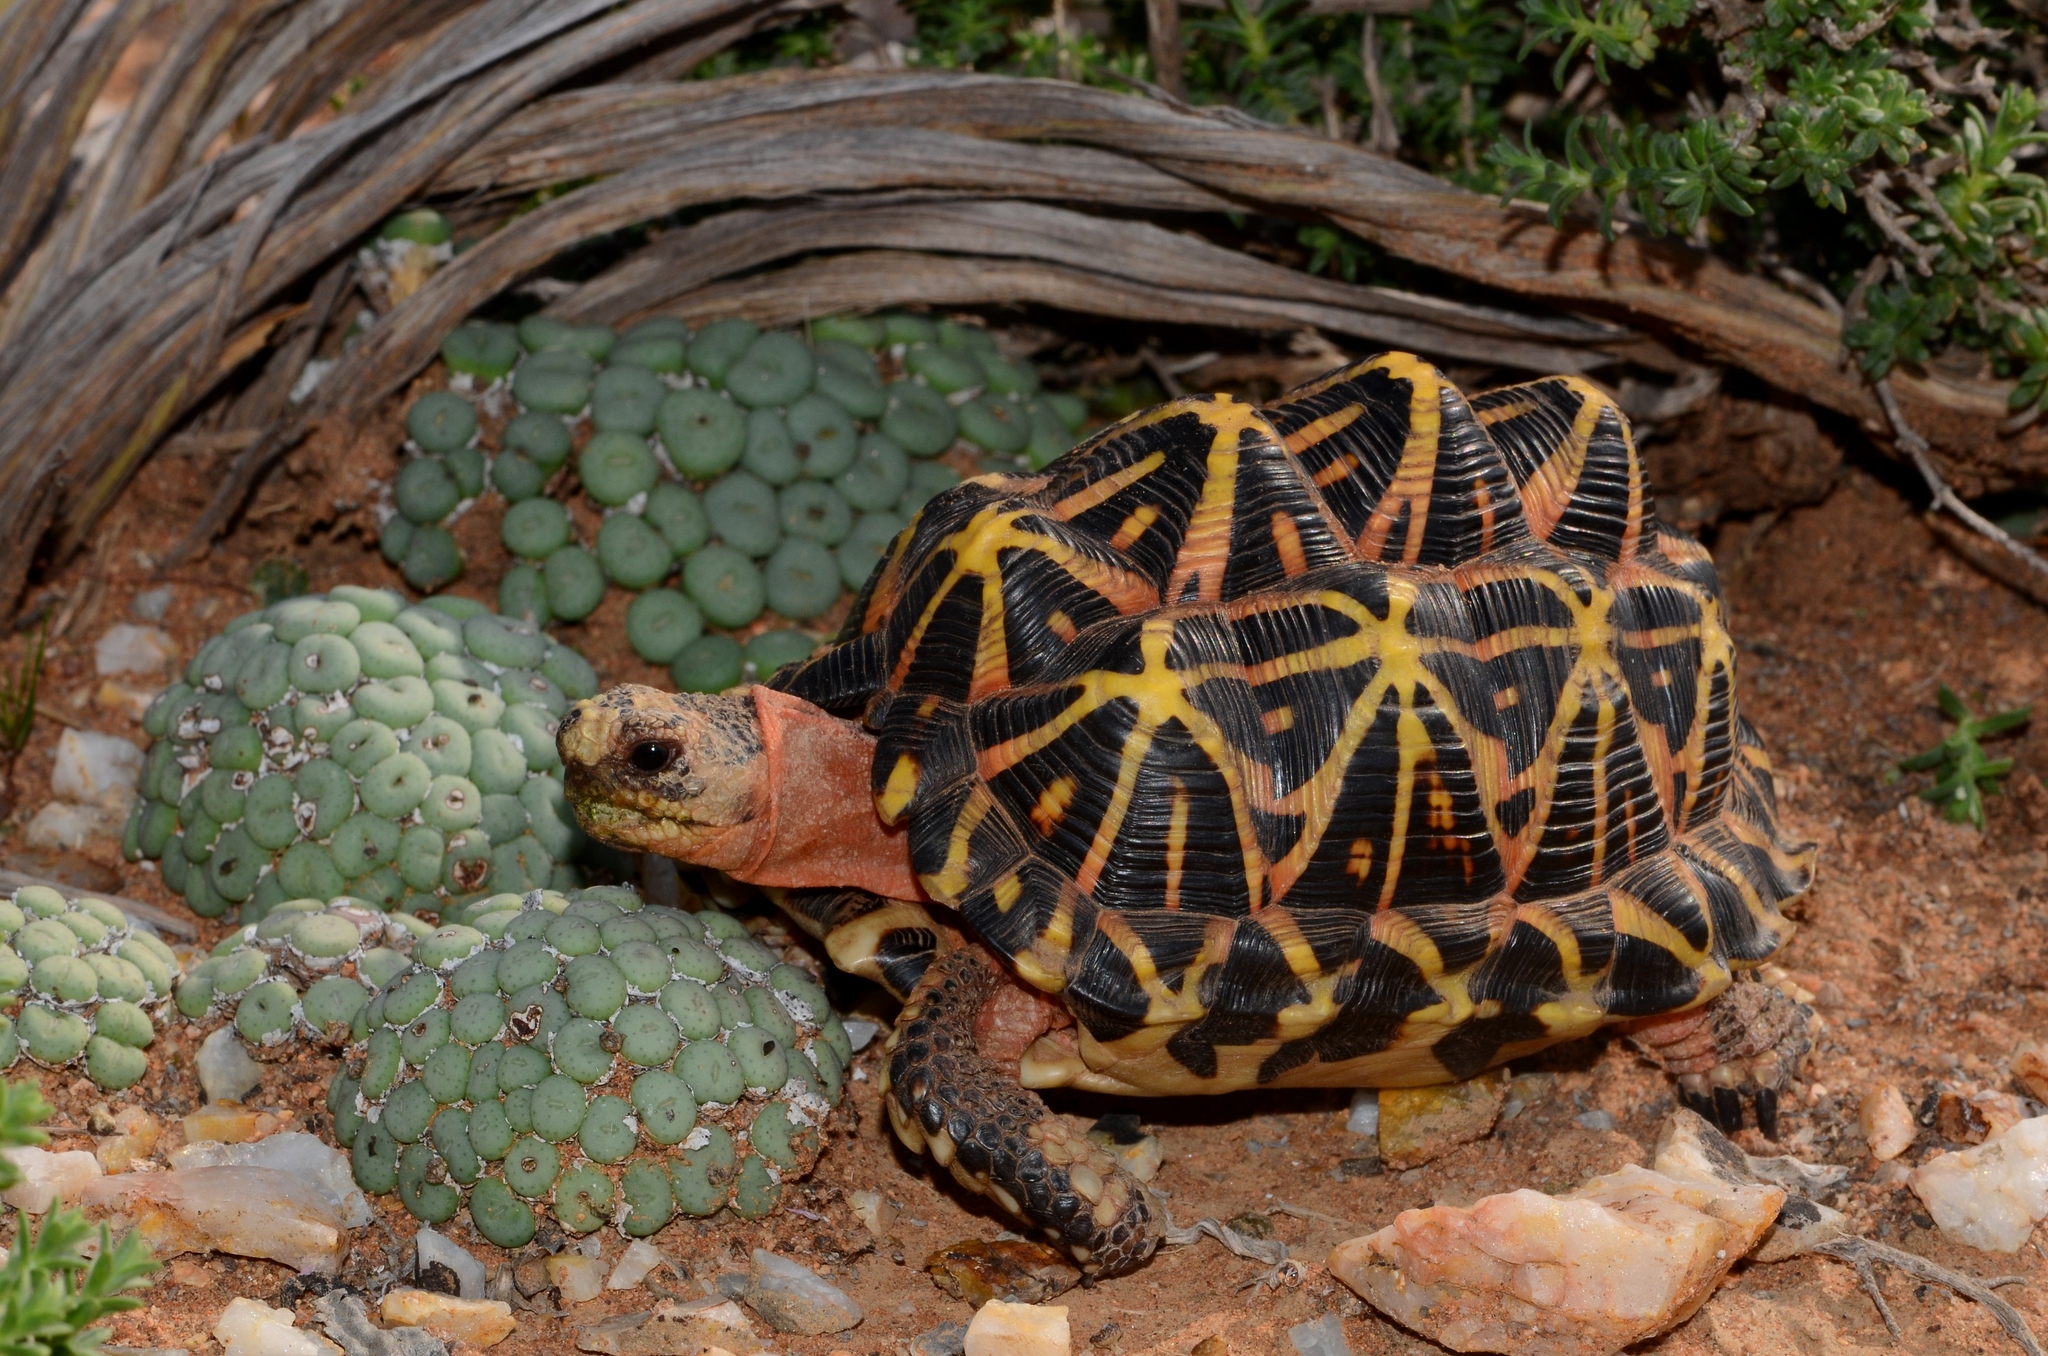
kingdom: Animalia
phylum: Chordata
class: Testudines
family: Testudinidae
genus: Psammobates
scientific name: Psammobates tentorius
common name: Tent tortoise
